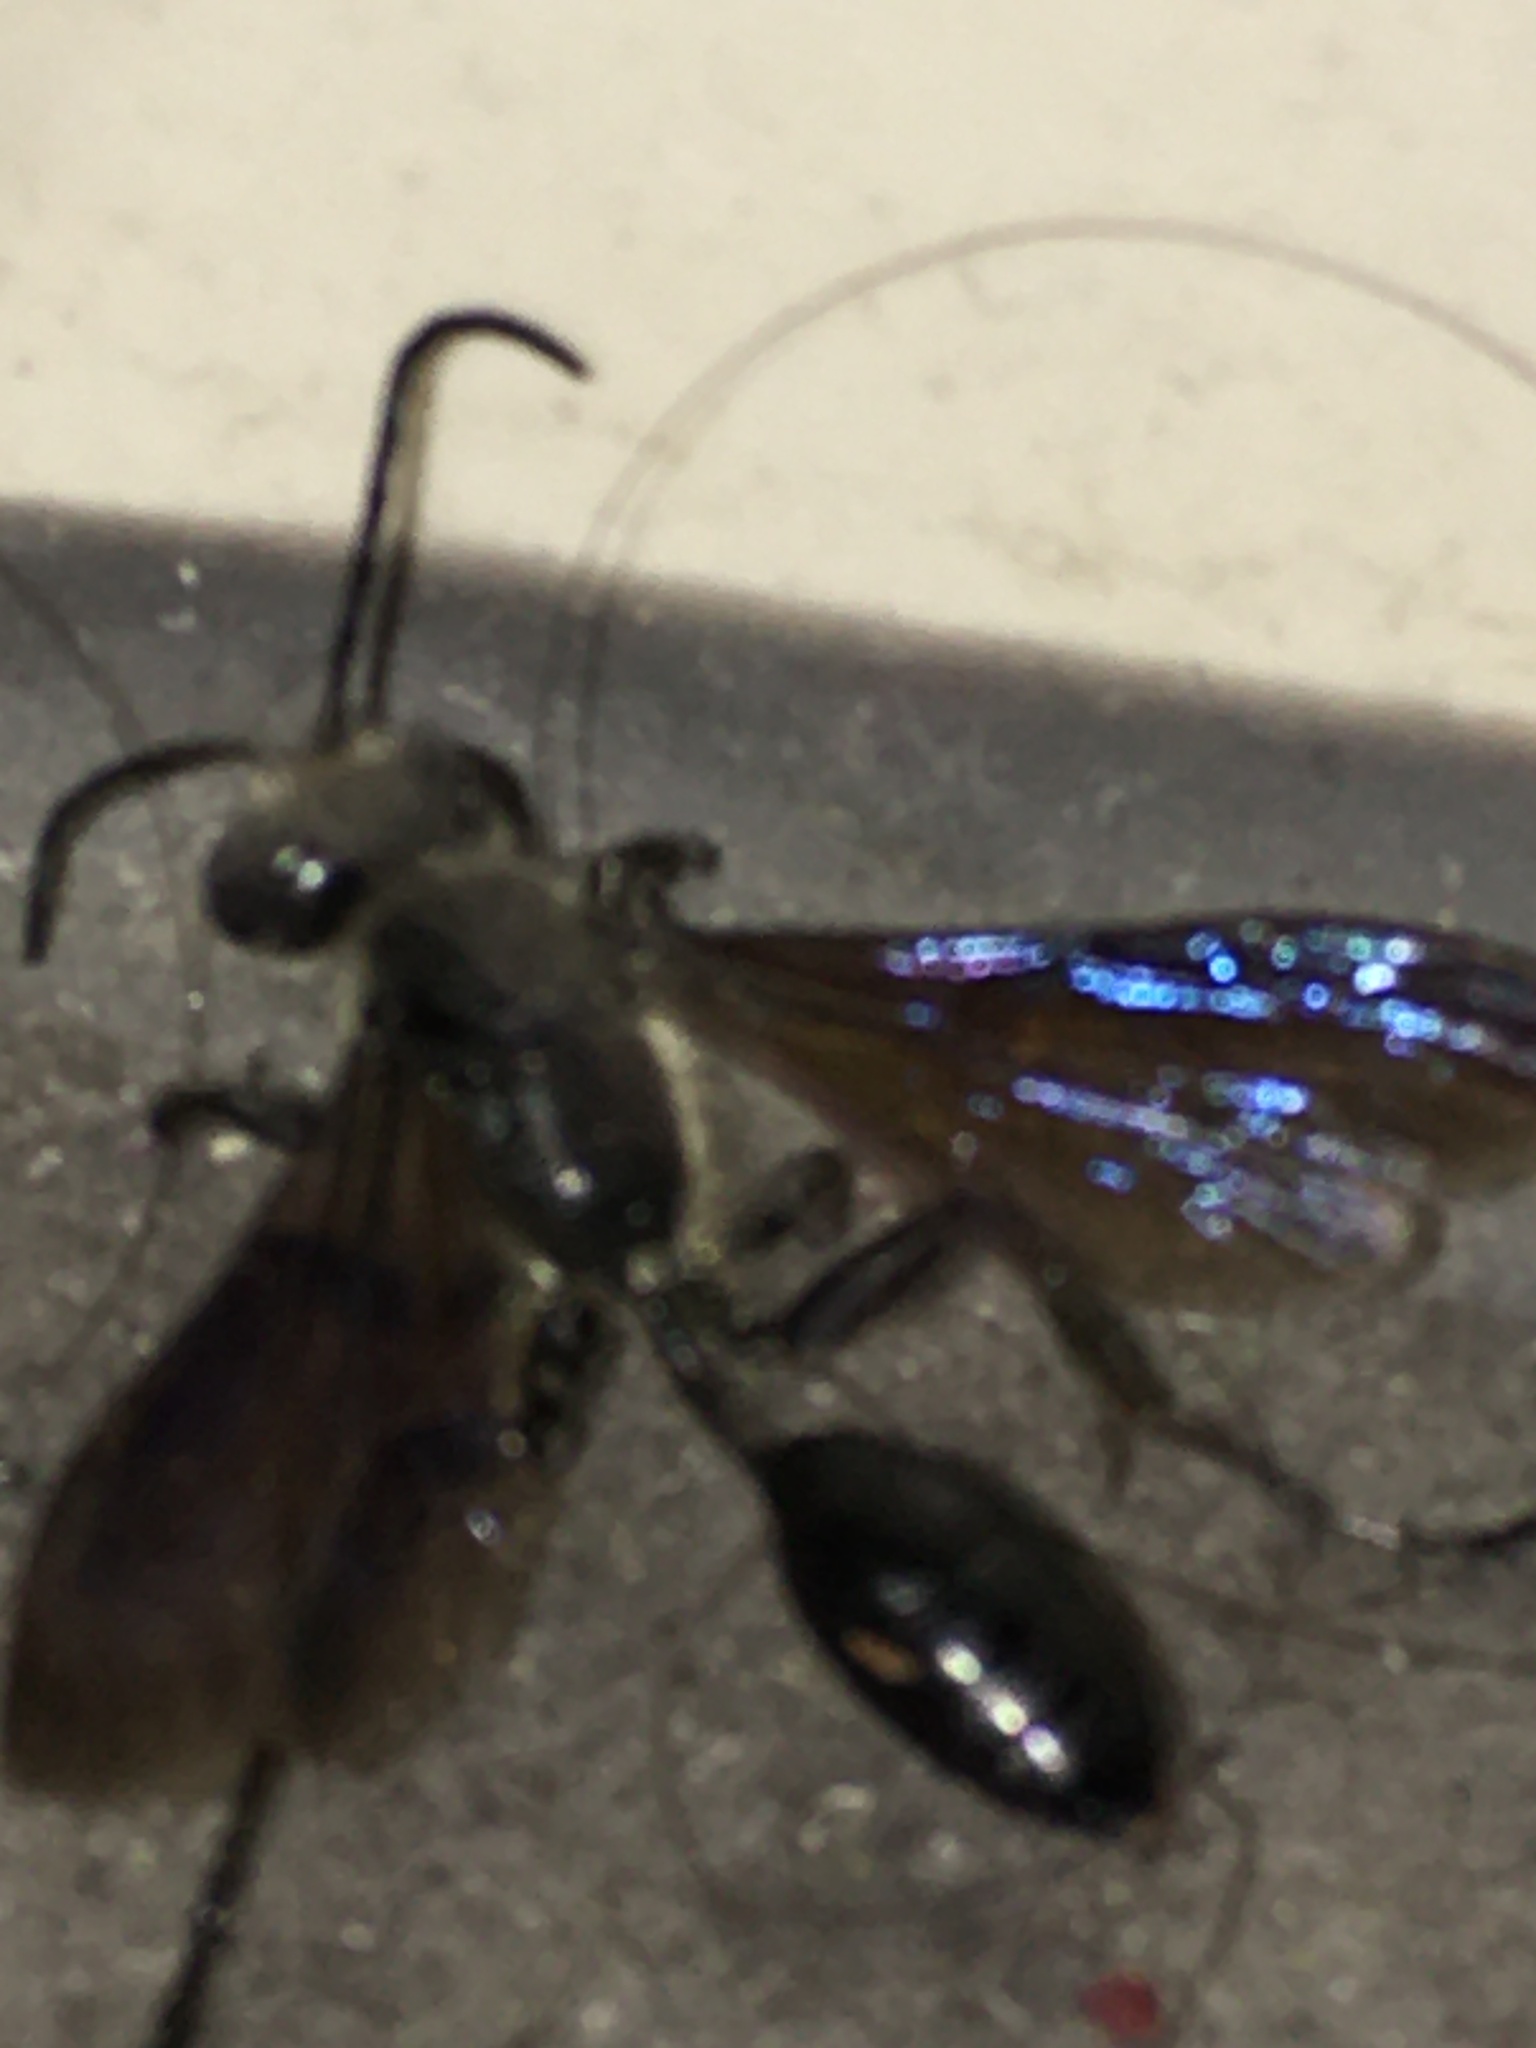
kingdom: Animalia
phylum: Arthropoda
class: Insecta
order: Hymenoptera
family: Sphecidae
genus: Isodontia
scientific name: Isodontia mexicana
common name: Mud dauber
